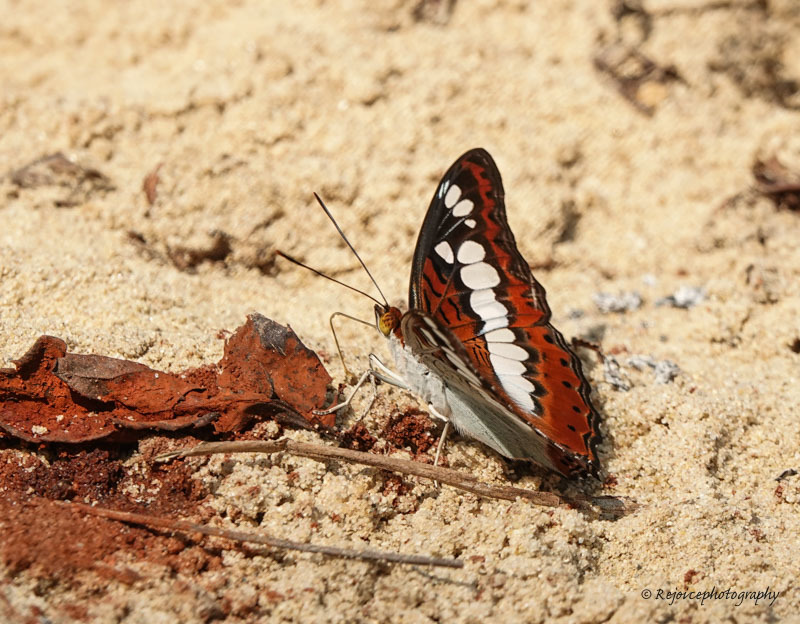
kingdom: Animalia
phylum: Arthropoda
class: Insecta
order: Lepidoptera
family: Nymphalidae
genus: Limenitis
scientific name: Limenitis Moduza procris
